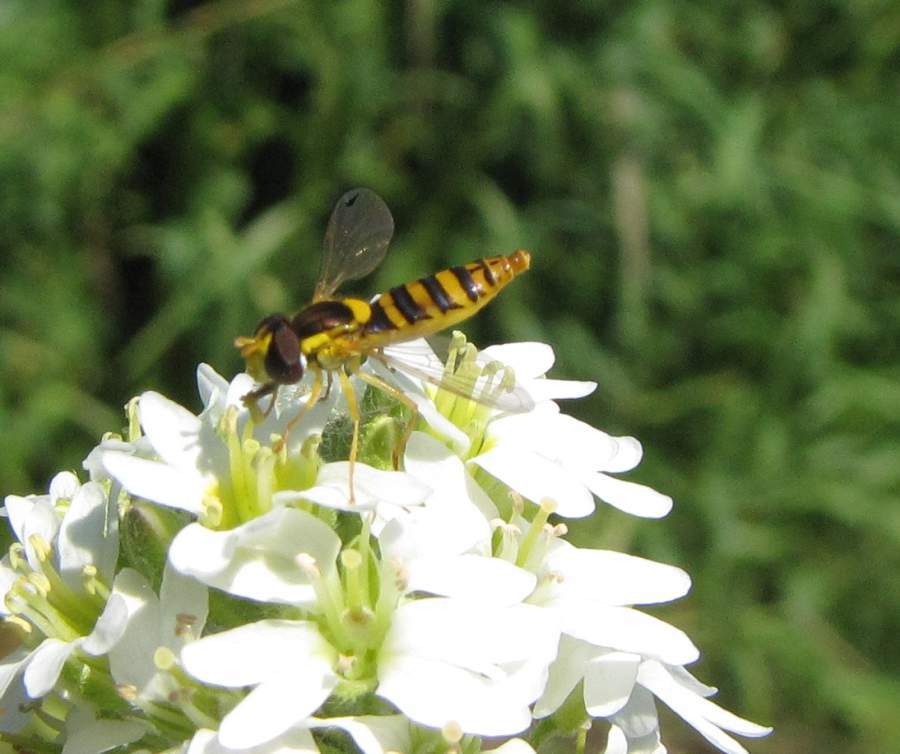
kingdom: Animalia
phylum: Arthropoda
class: Insecta
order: Diptera
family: Syrphidae
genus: Sphaerophoria
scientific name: Sphaerophoria
